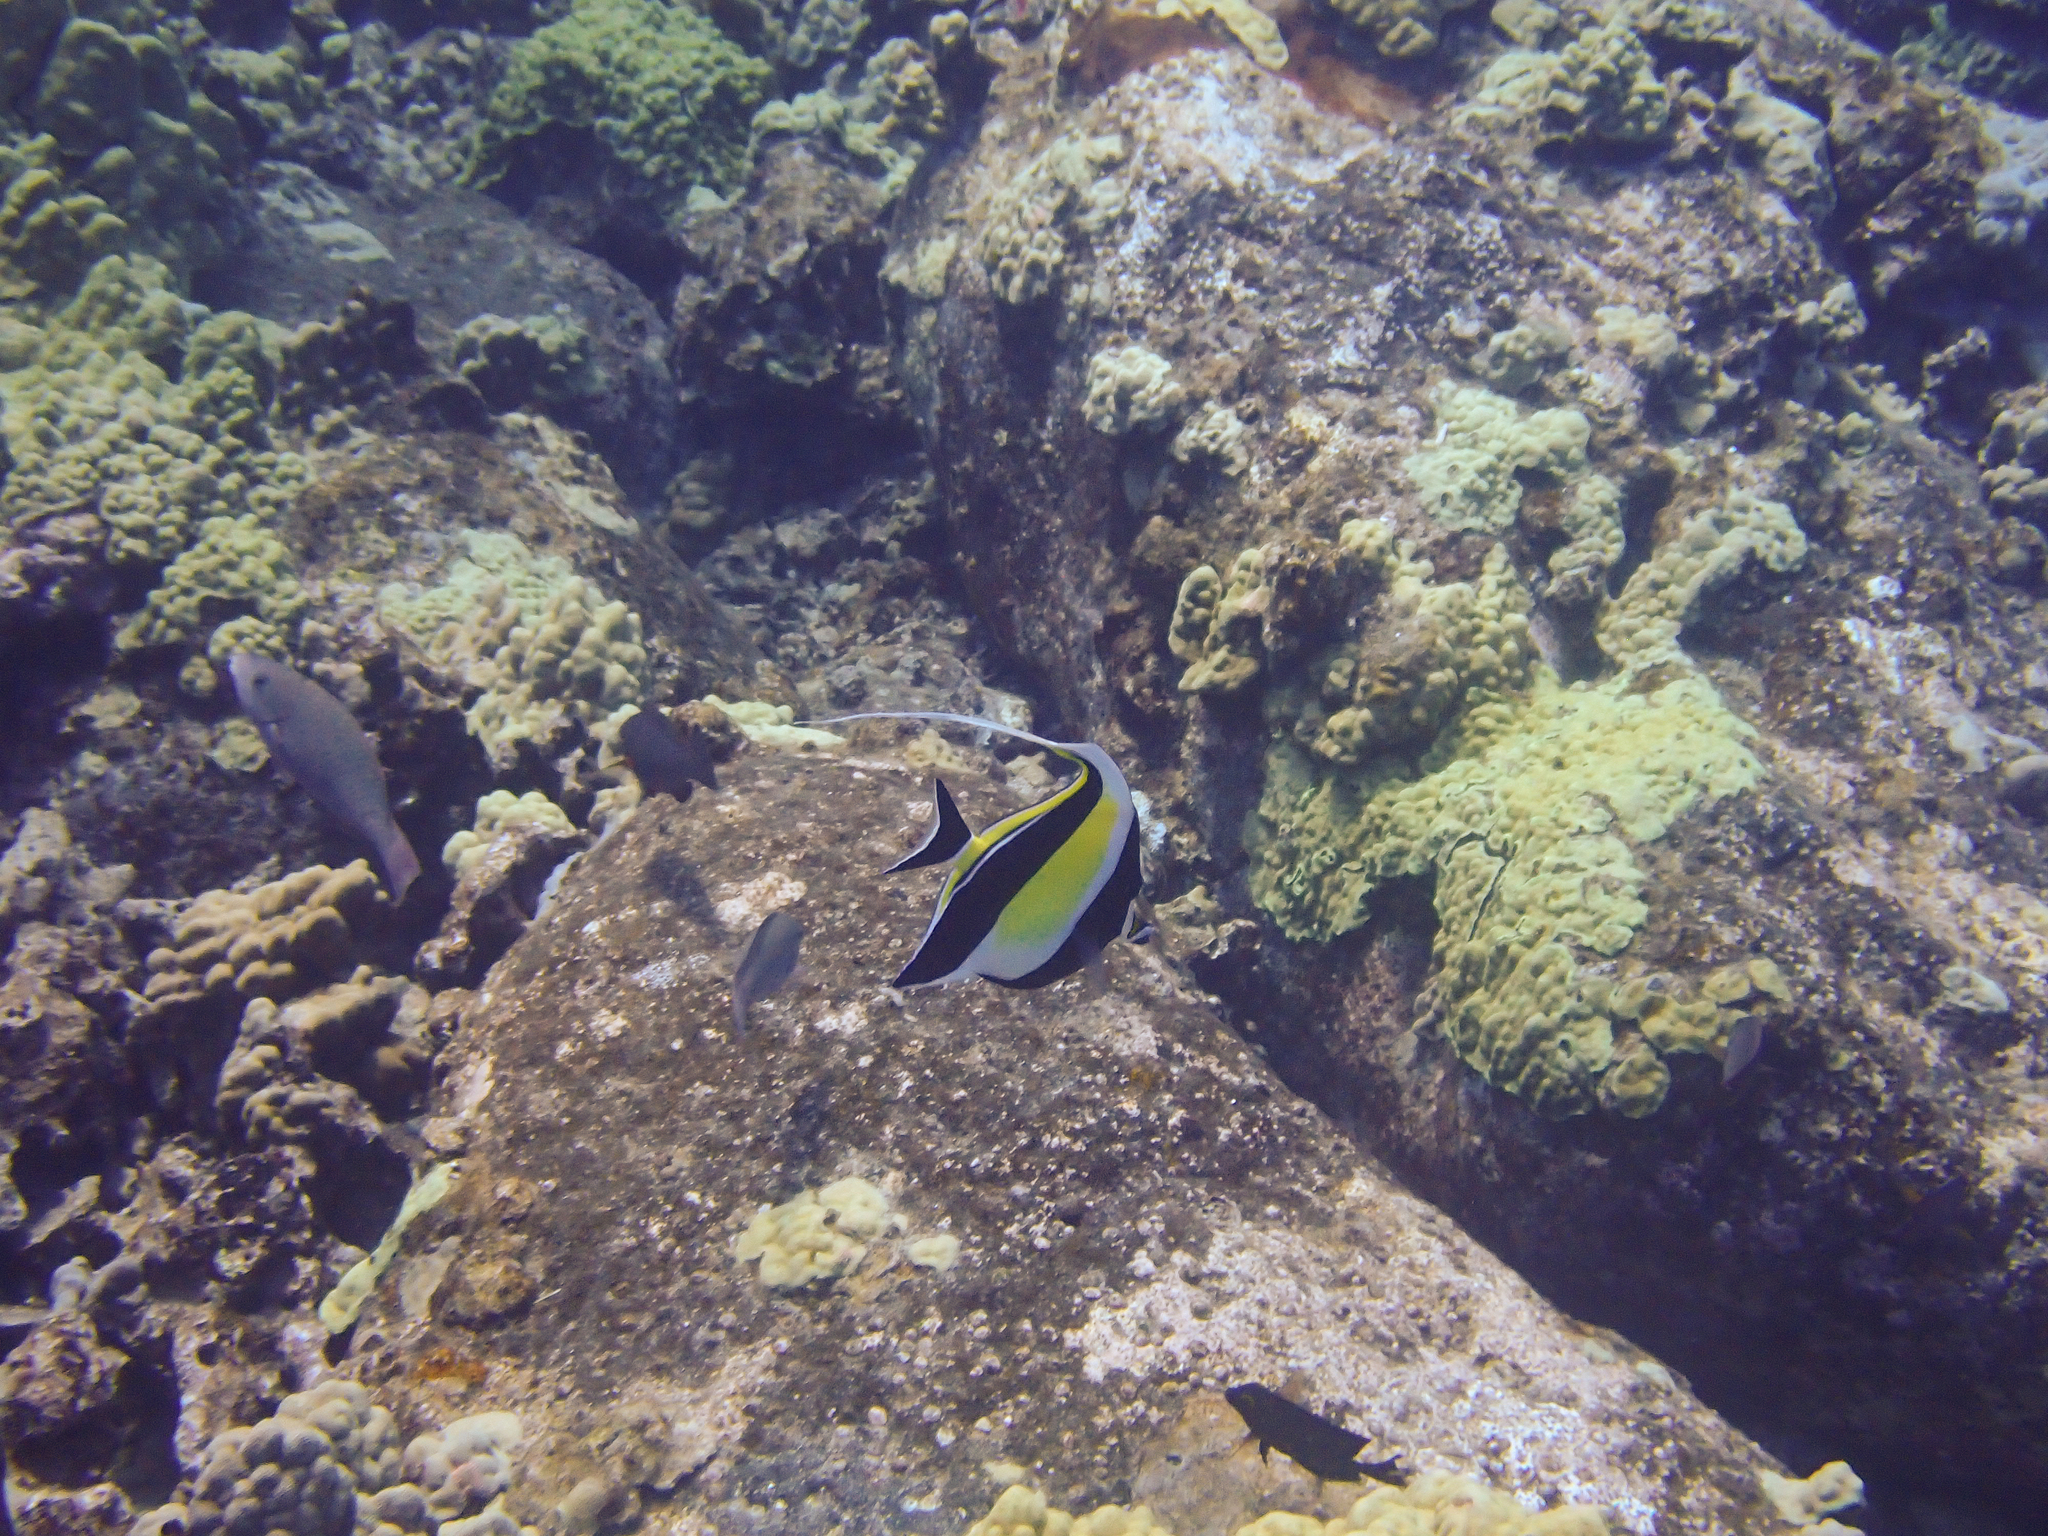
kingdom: Animalia
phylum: Chordata
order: Perciformes
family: Zanclidae
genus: Zanclus
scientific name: Zanclus cornutus
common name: Moorish idol
